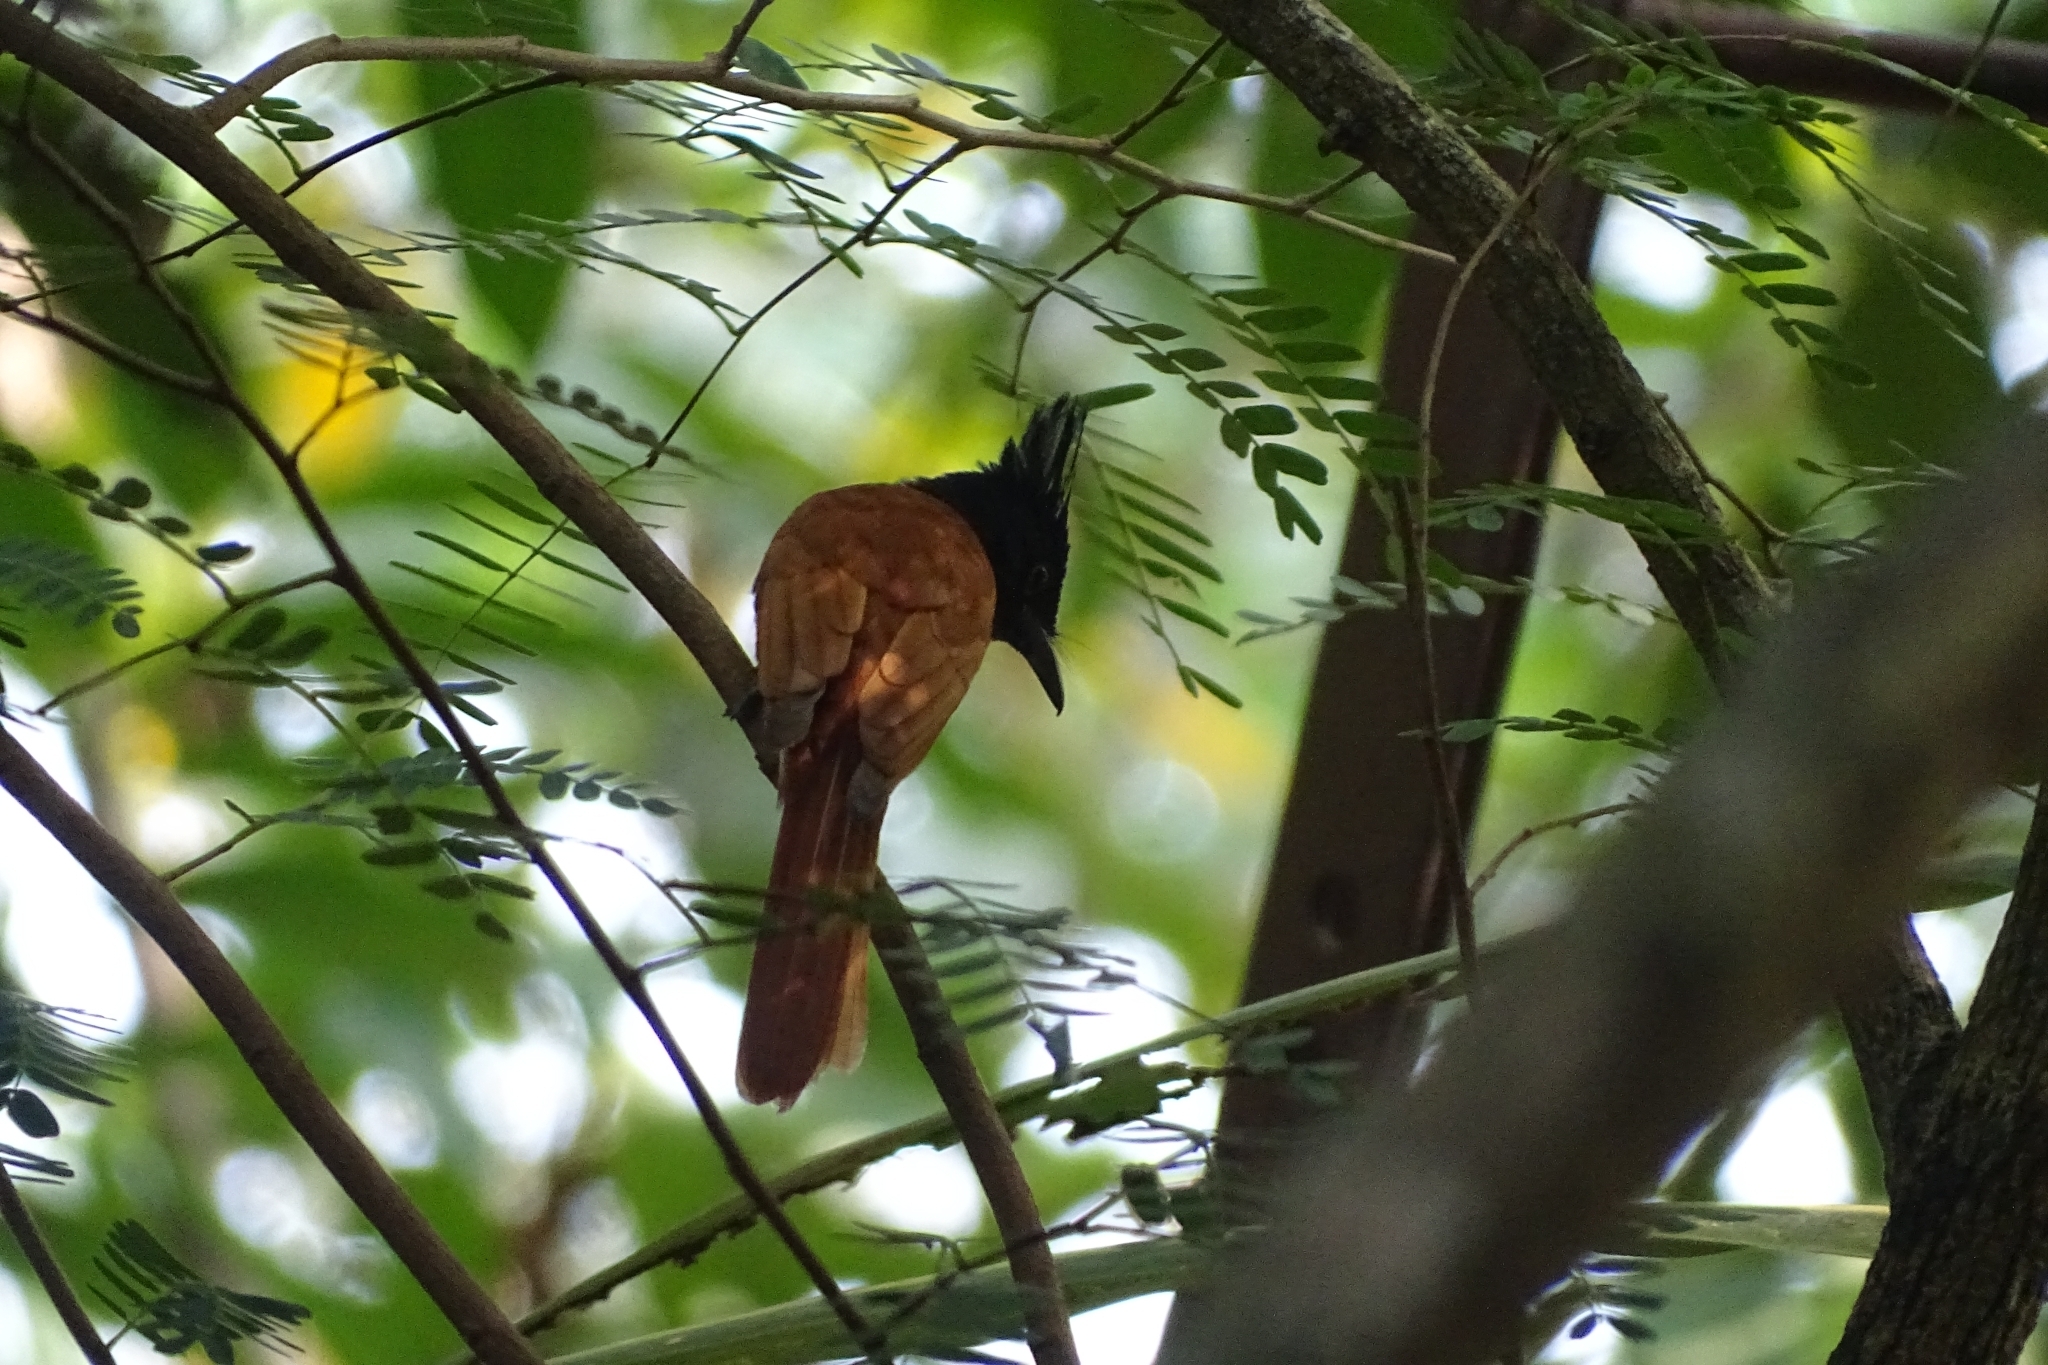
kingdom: Animalia
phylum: Chordata
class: Aves
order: Passeriformes
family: Monarchidae
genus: Terpsiphone
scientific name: Terpsiphone paradisi
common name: Indian paradise flycatcher
